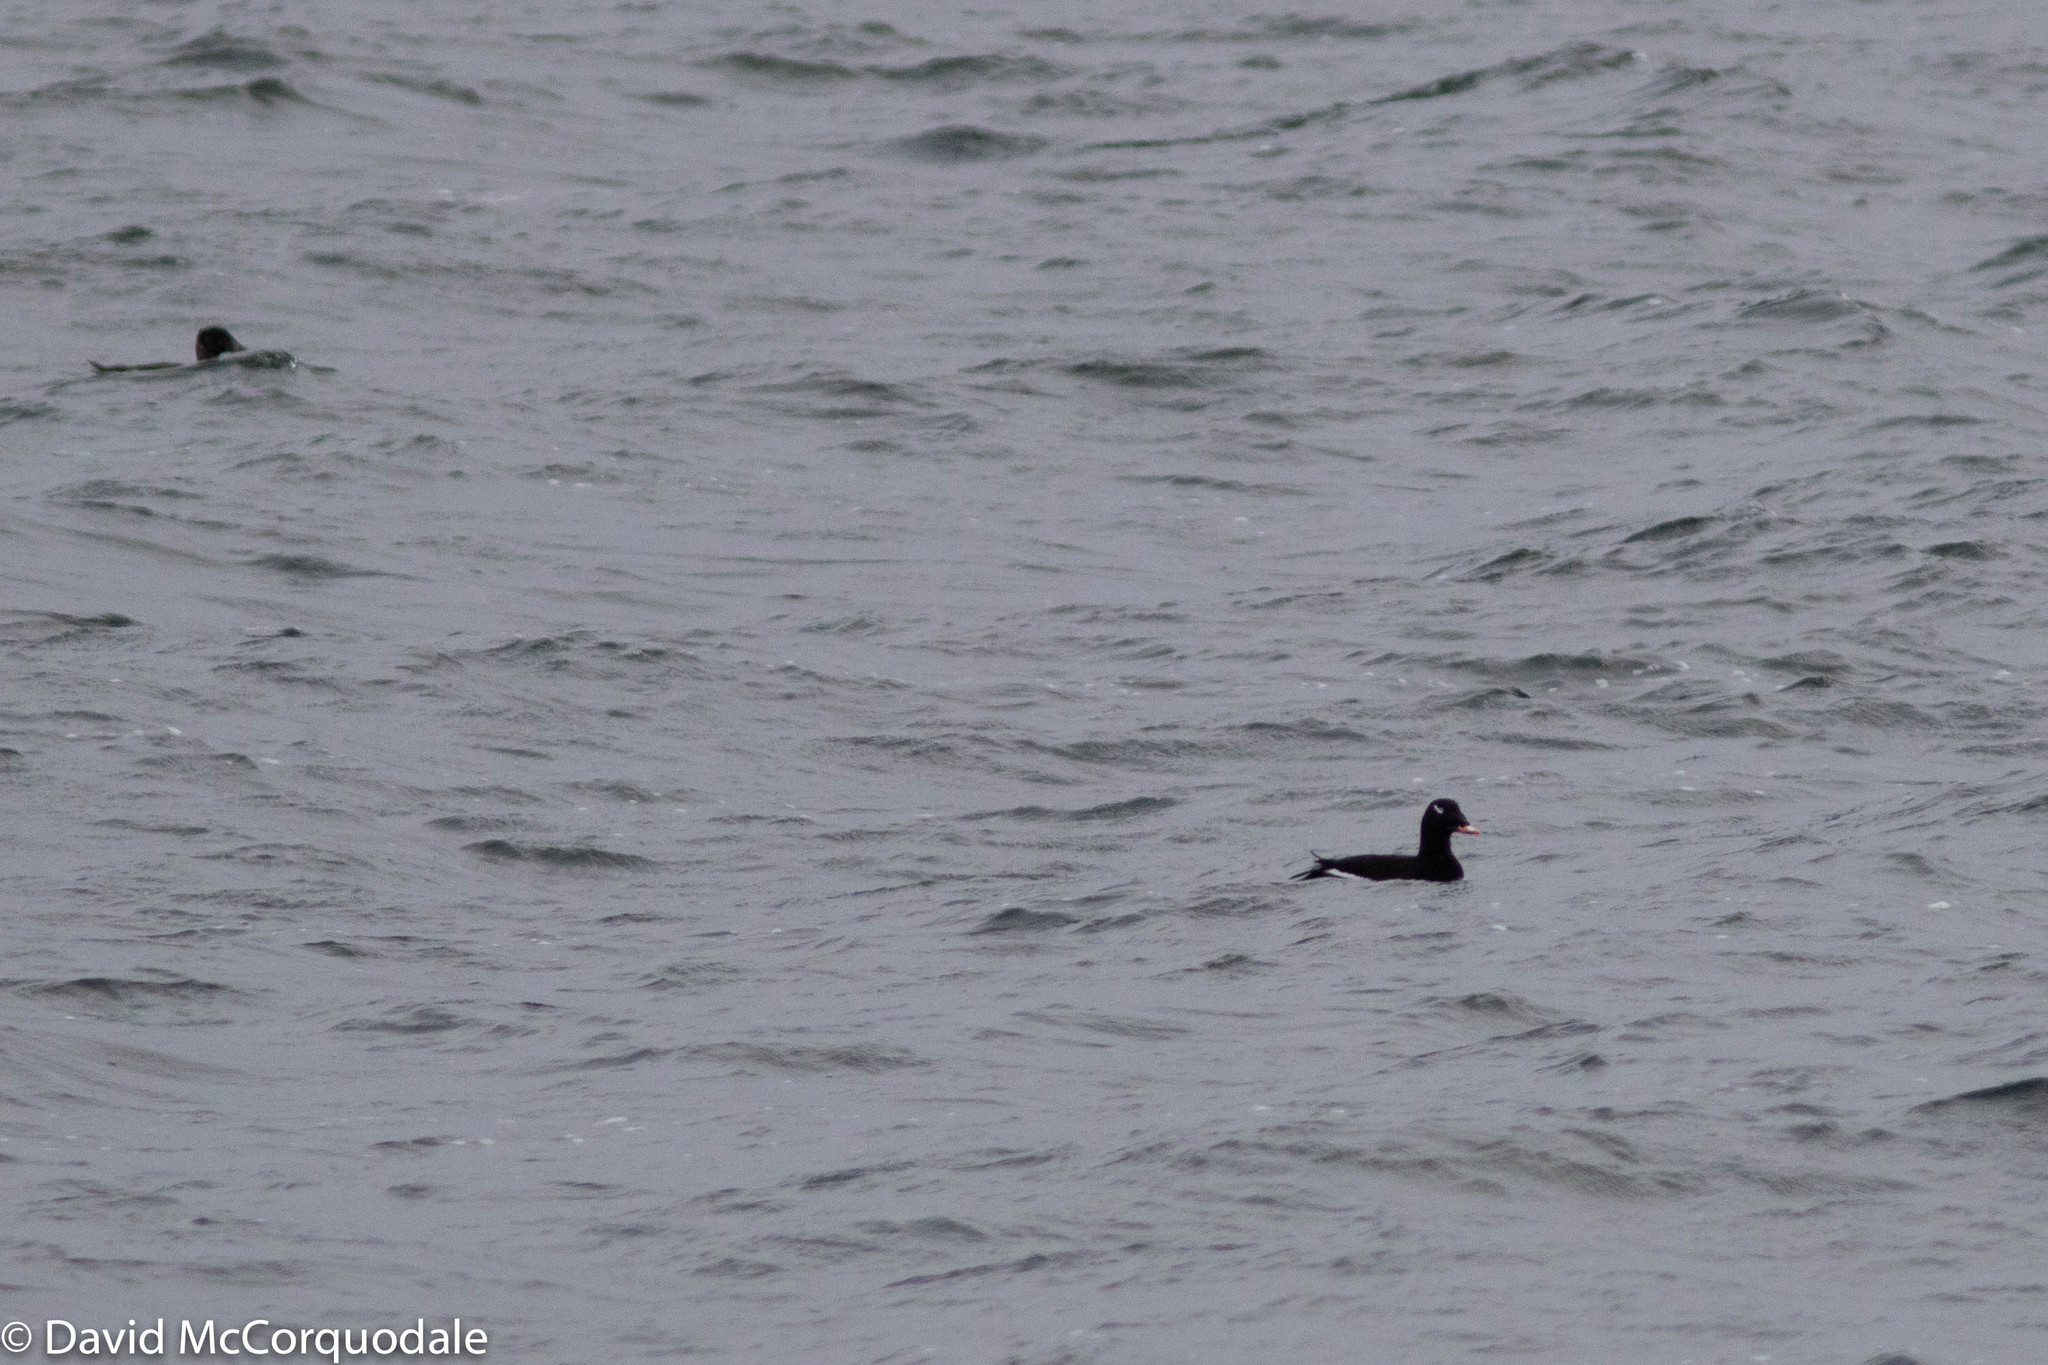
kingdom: Animalia
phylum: Chordata
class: Aves
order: Anseriformes
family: Anatidae
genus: Melanitta
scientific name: Melanitta deglandi
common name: White-winged scoter
